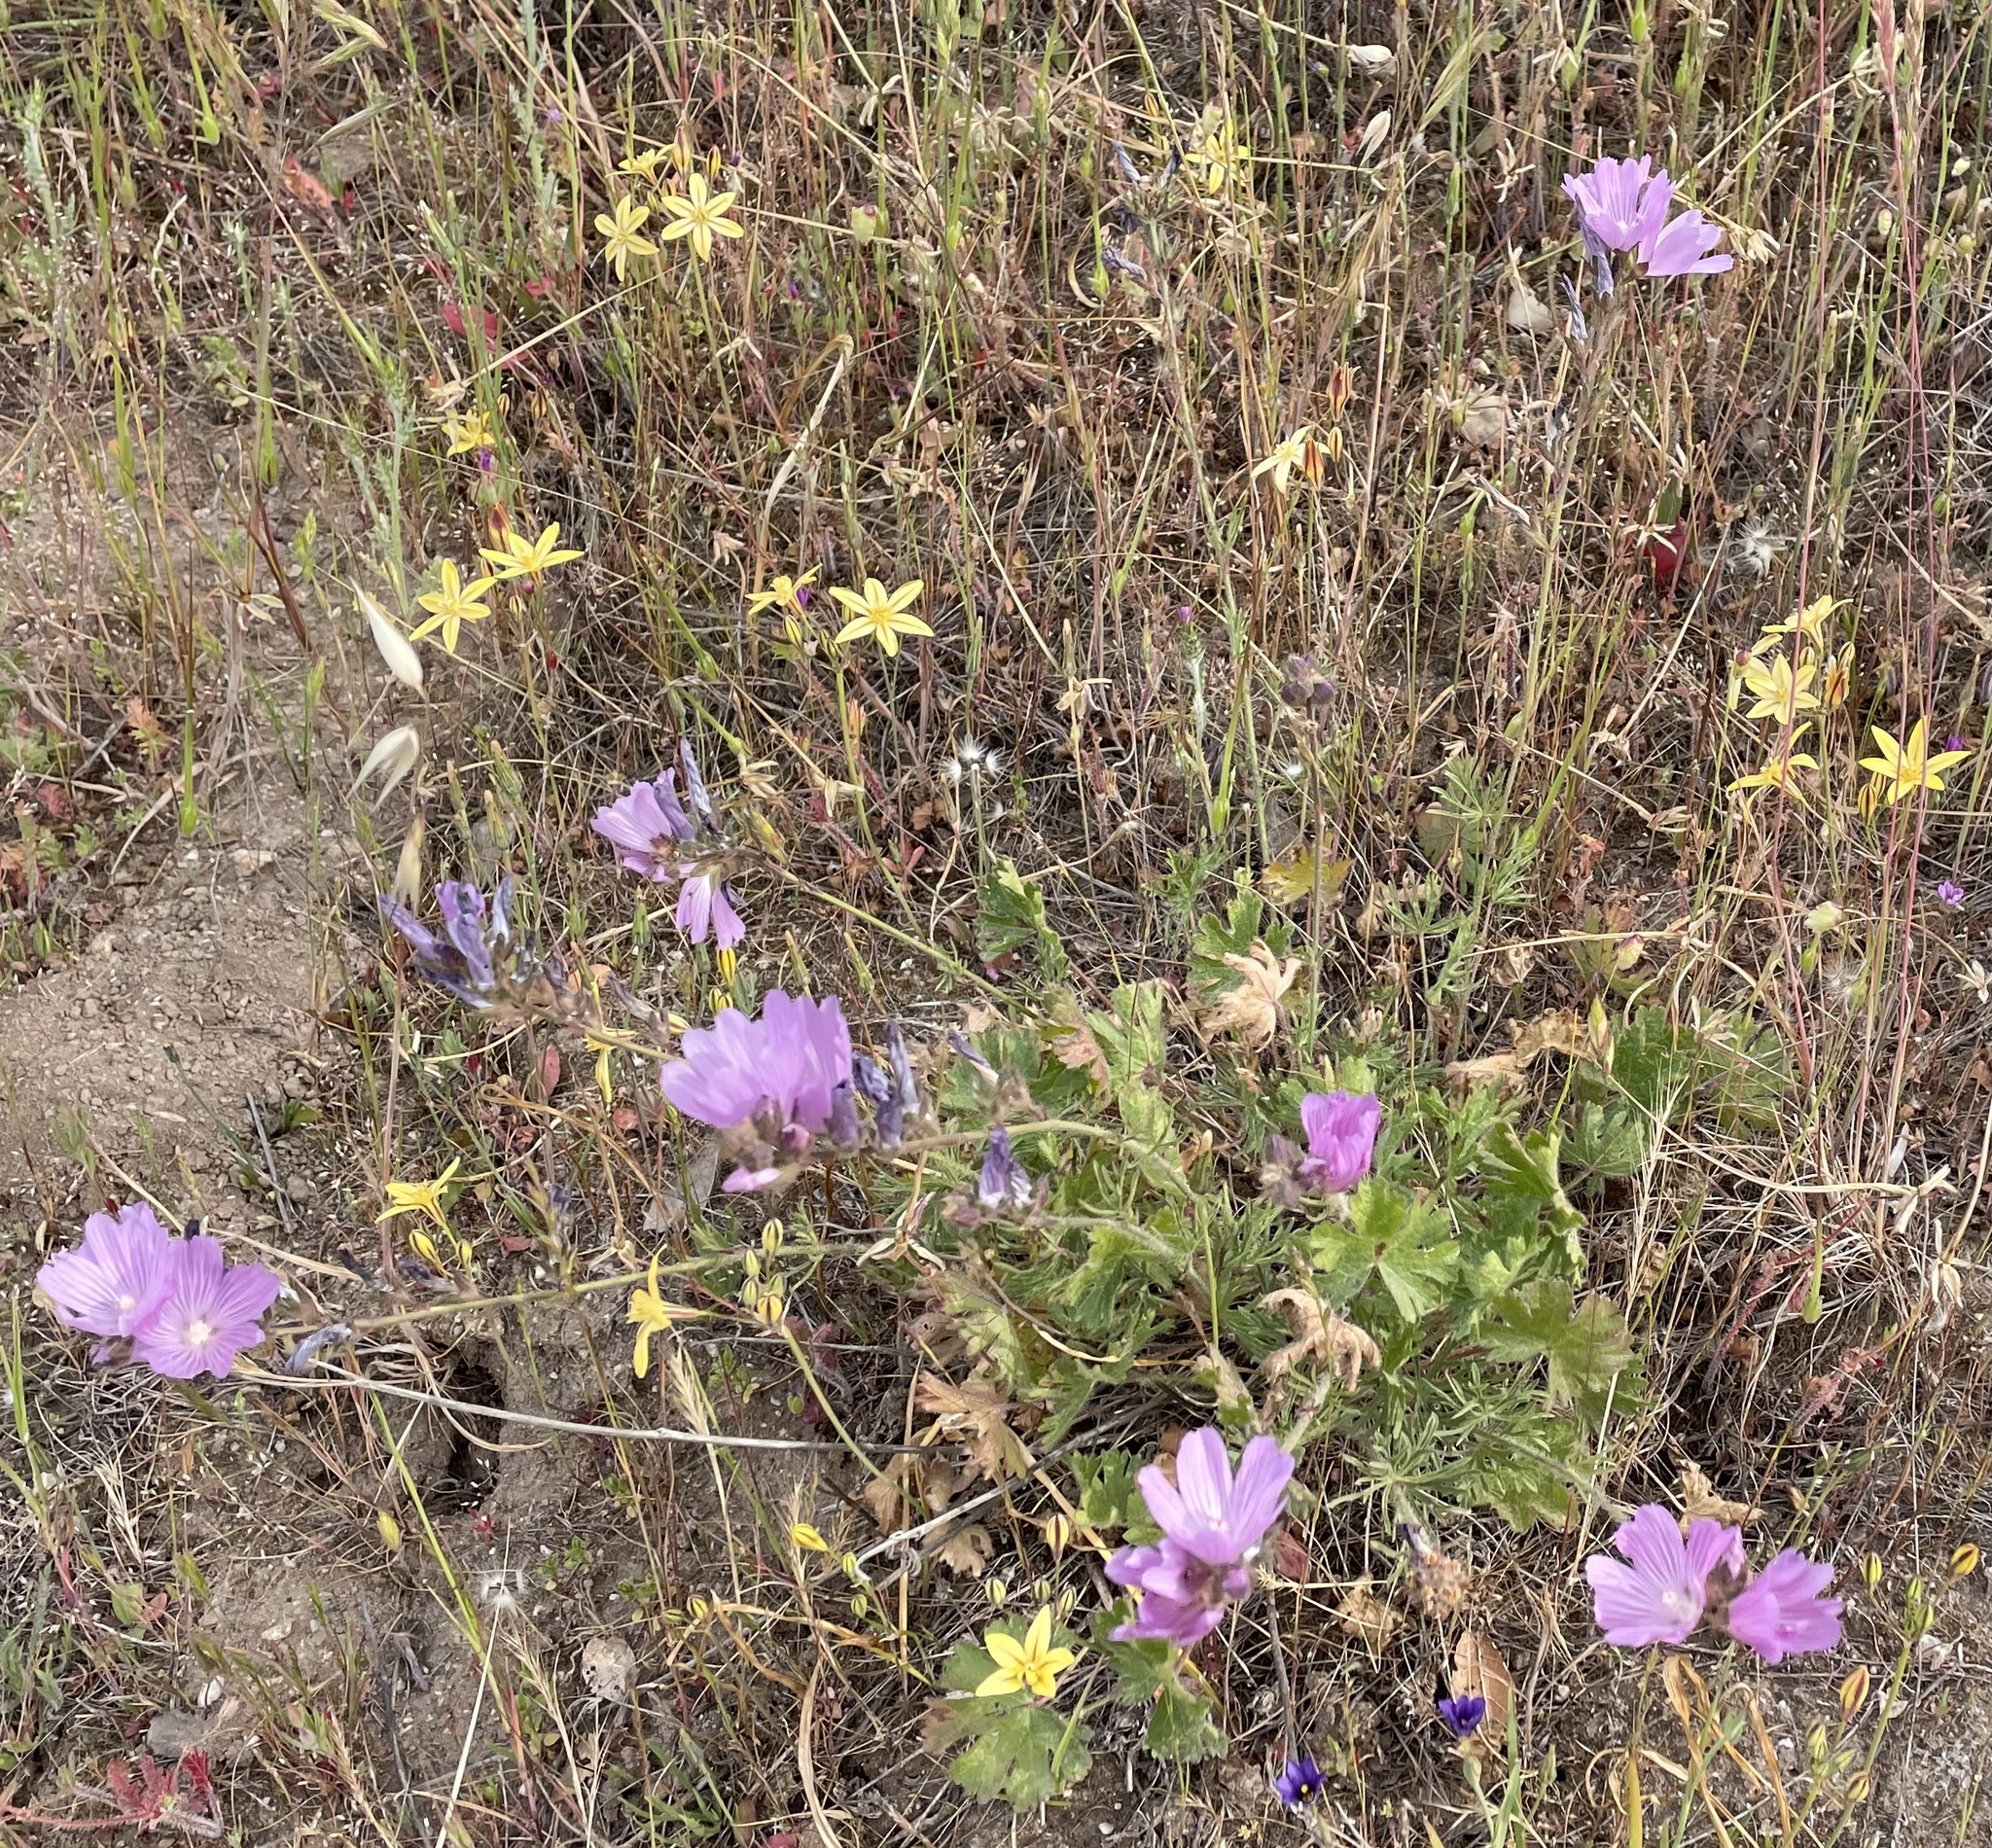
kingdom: Plantae
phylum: Tracheophyta
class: Magnoliopsida
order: Malvales
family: Malvaceae
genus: Sidalcea
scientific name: Sidalcea malviflora
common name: Greek mallow
